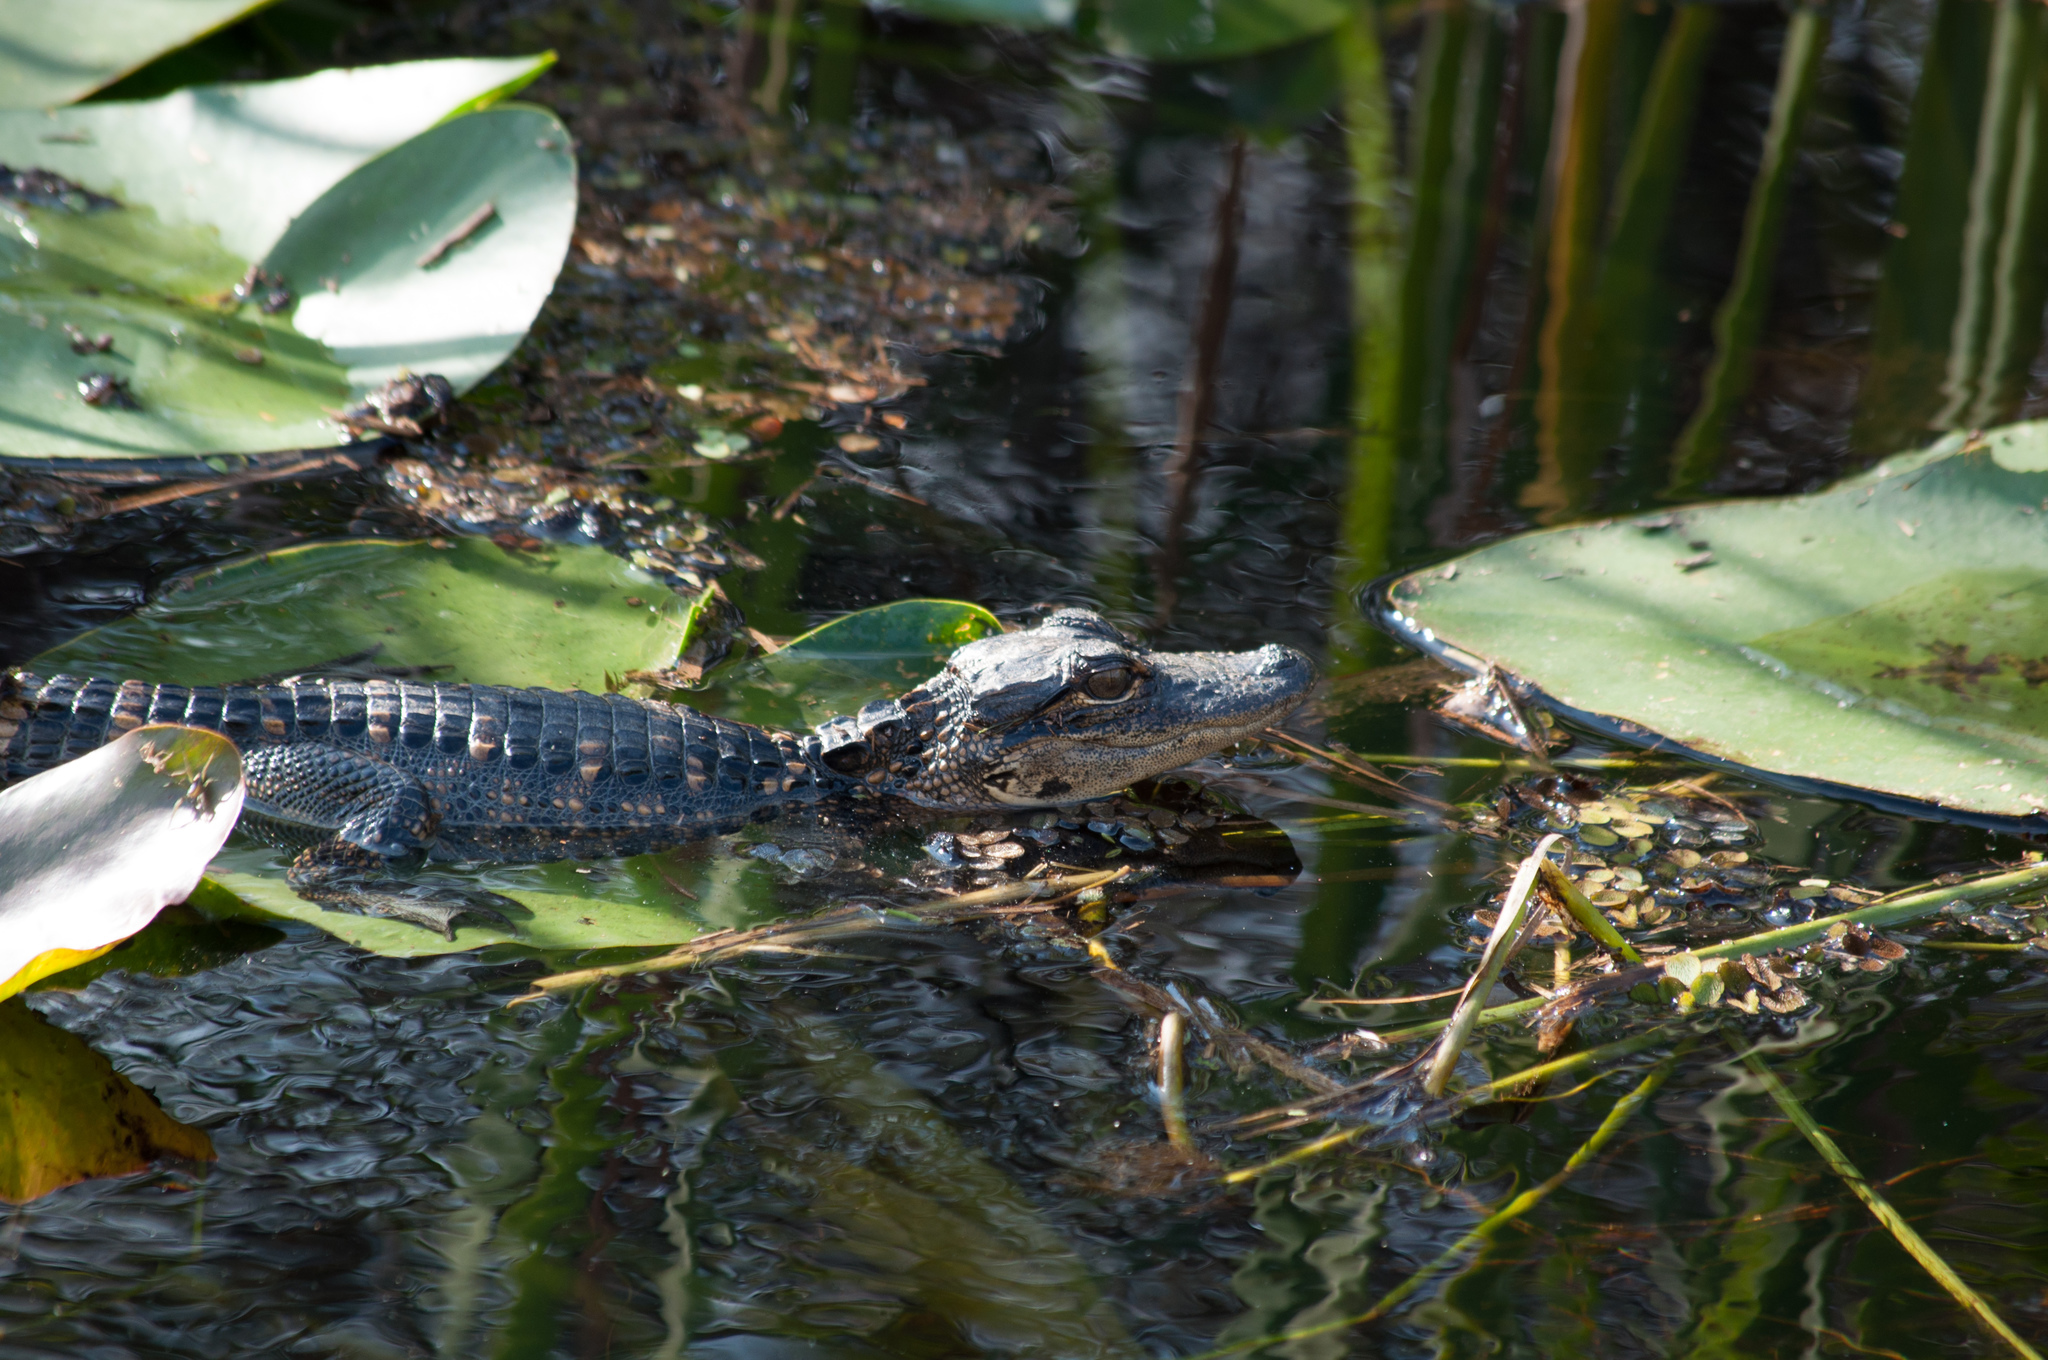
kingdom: Animalia
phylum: Chordata
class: Crocodylia
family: Alligatoridae
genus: Alligator
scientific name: Alligator mississippiensis
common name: American alligator
